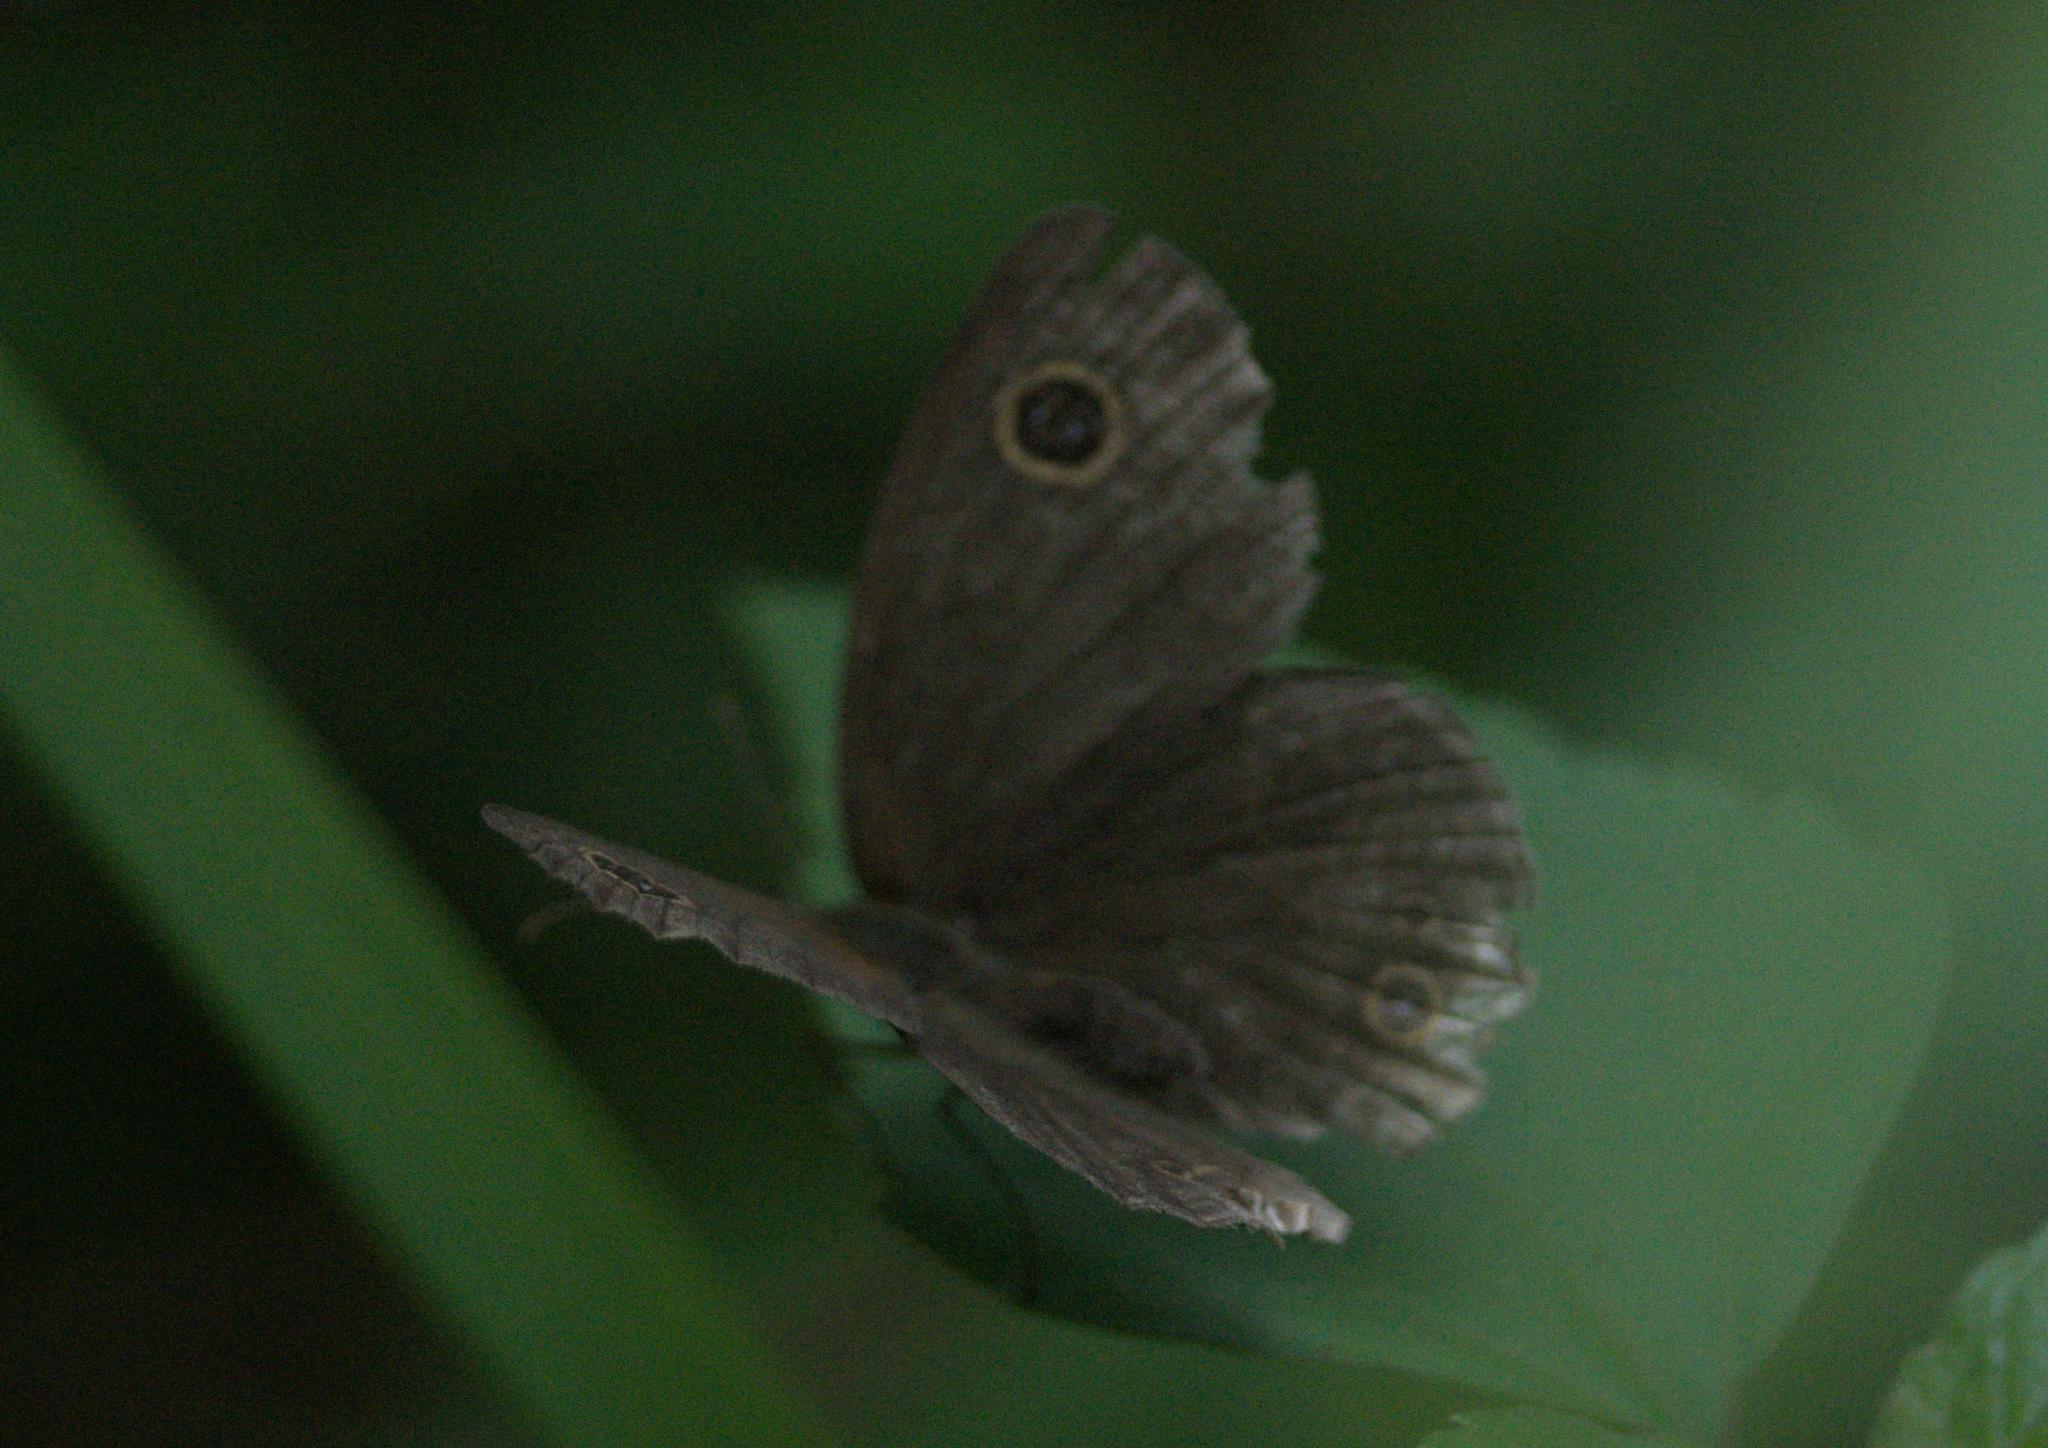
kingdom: Animalia
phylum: Arthropoda
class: Insecta
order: Lepidoptera
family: Nymphalidae
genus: Ypthima
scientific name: Ypthima nikaea
